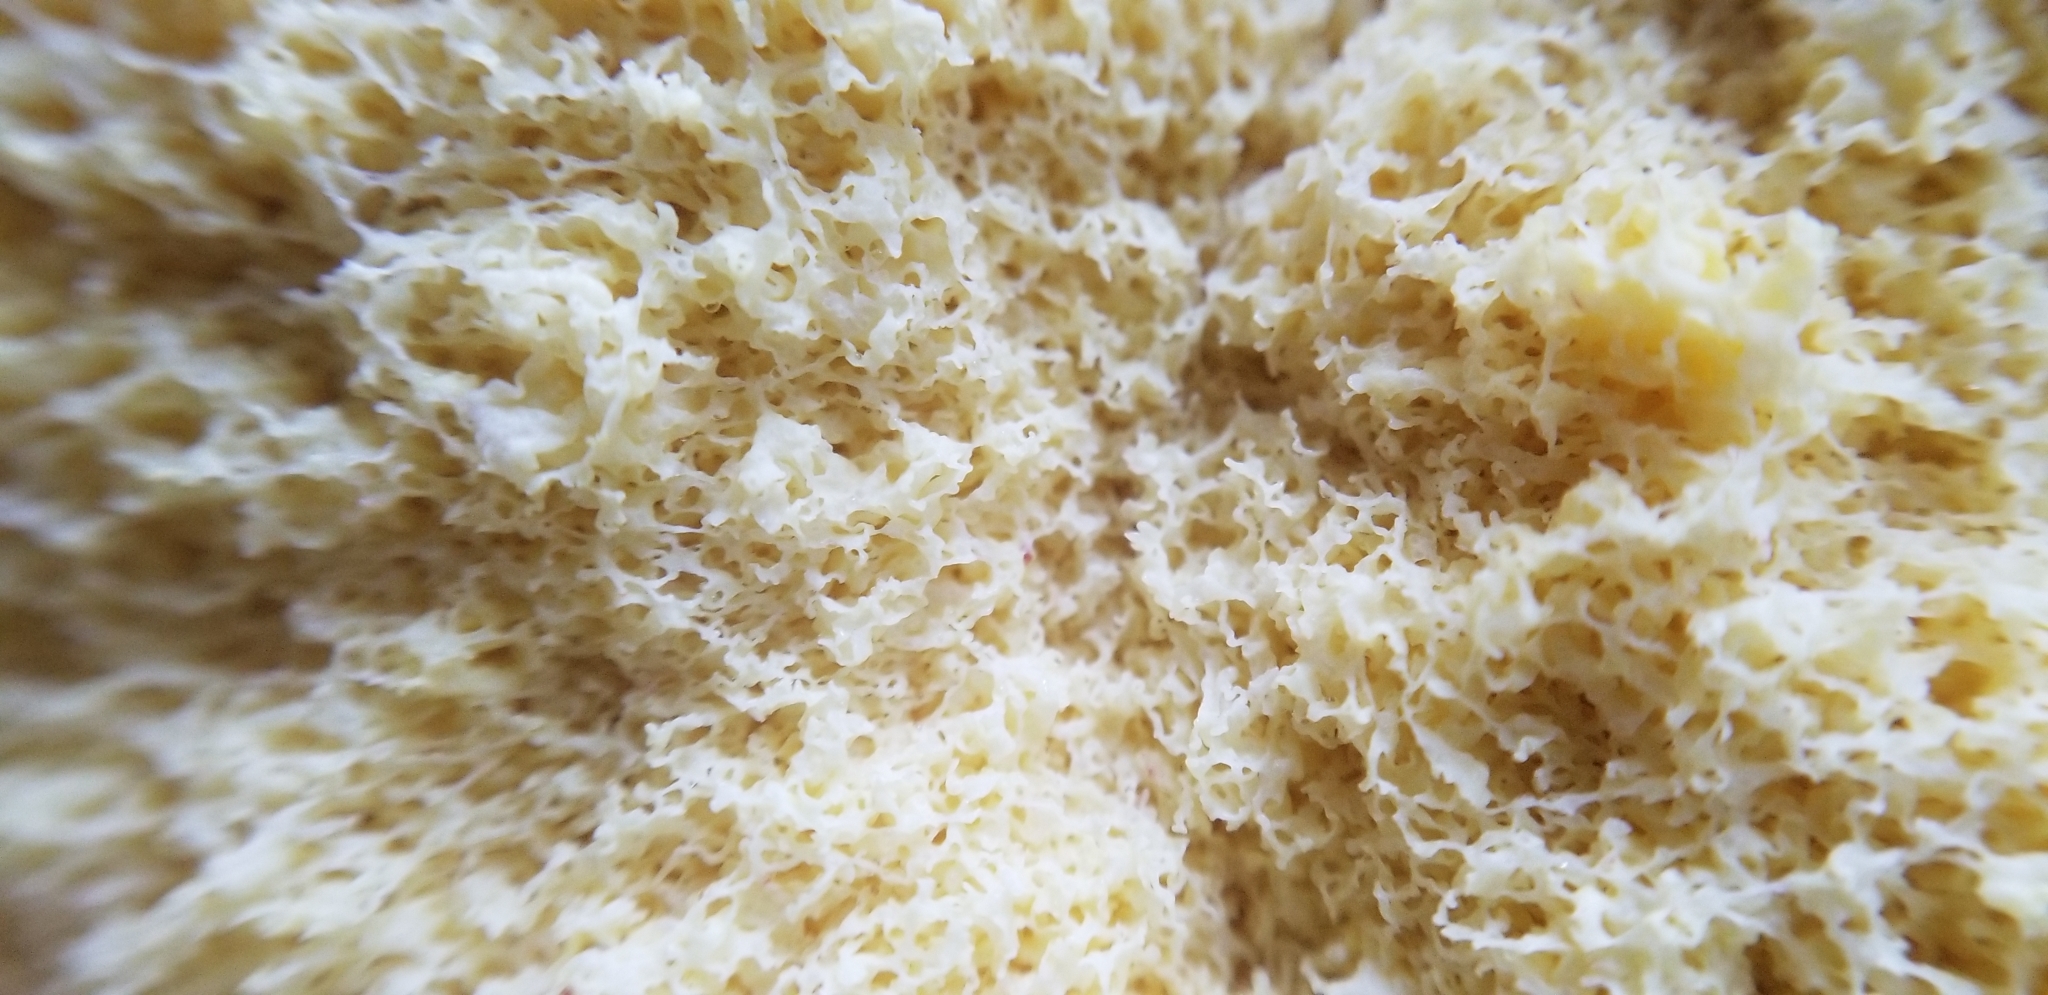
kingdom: Protozoa
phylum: Mycetozoa
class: Myxomycetes
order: Physarales
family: Physaraceae
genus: Fuligo
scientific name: Fuligo septica
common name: Dog vomit slime mold
